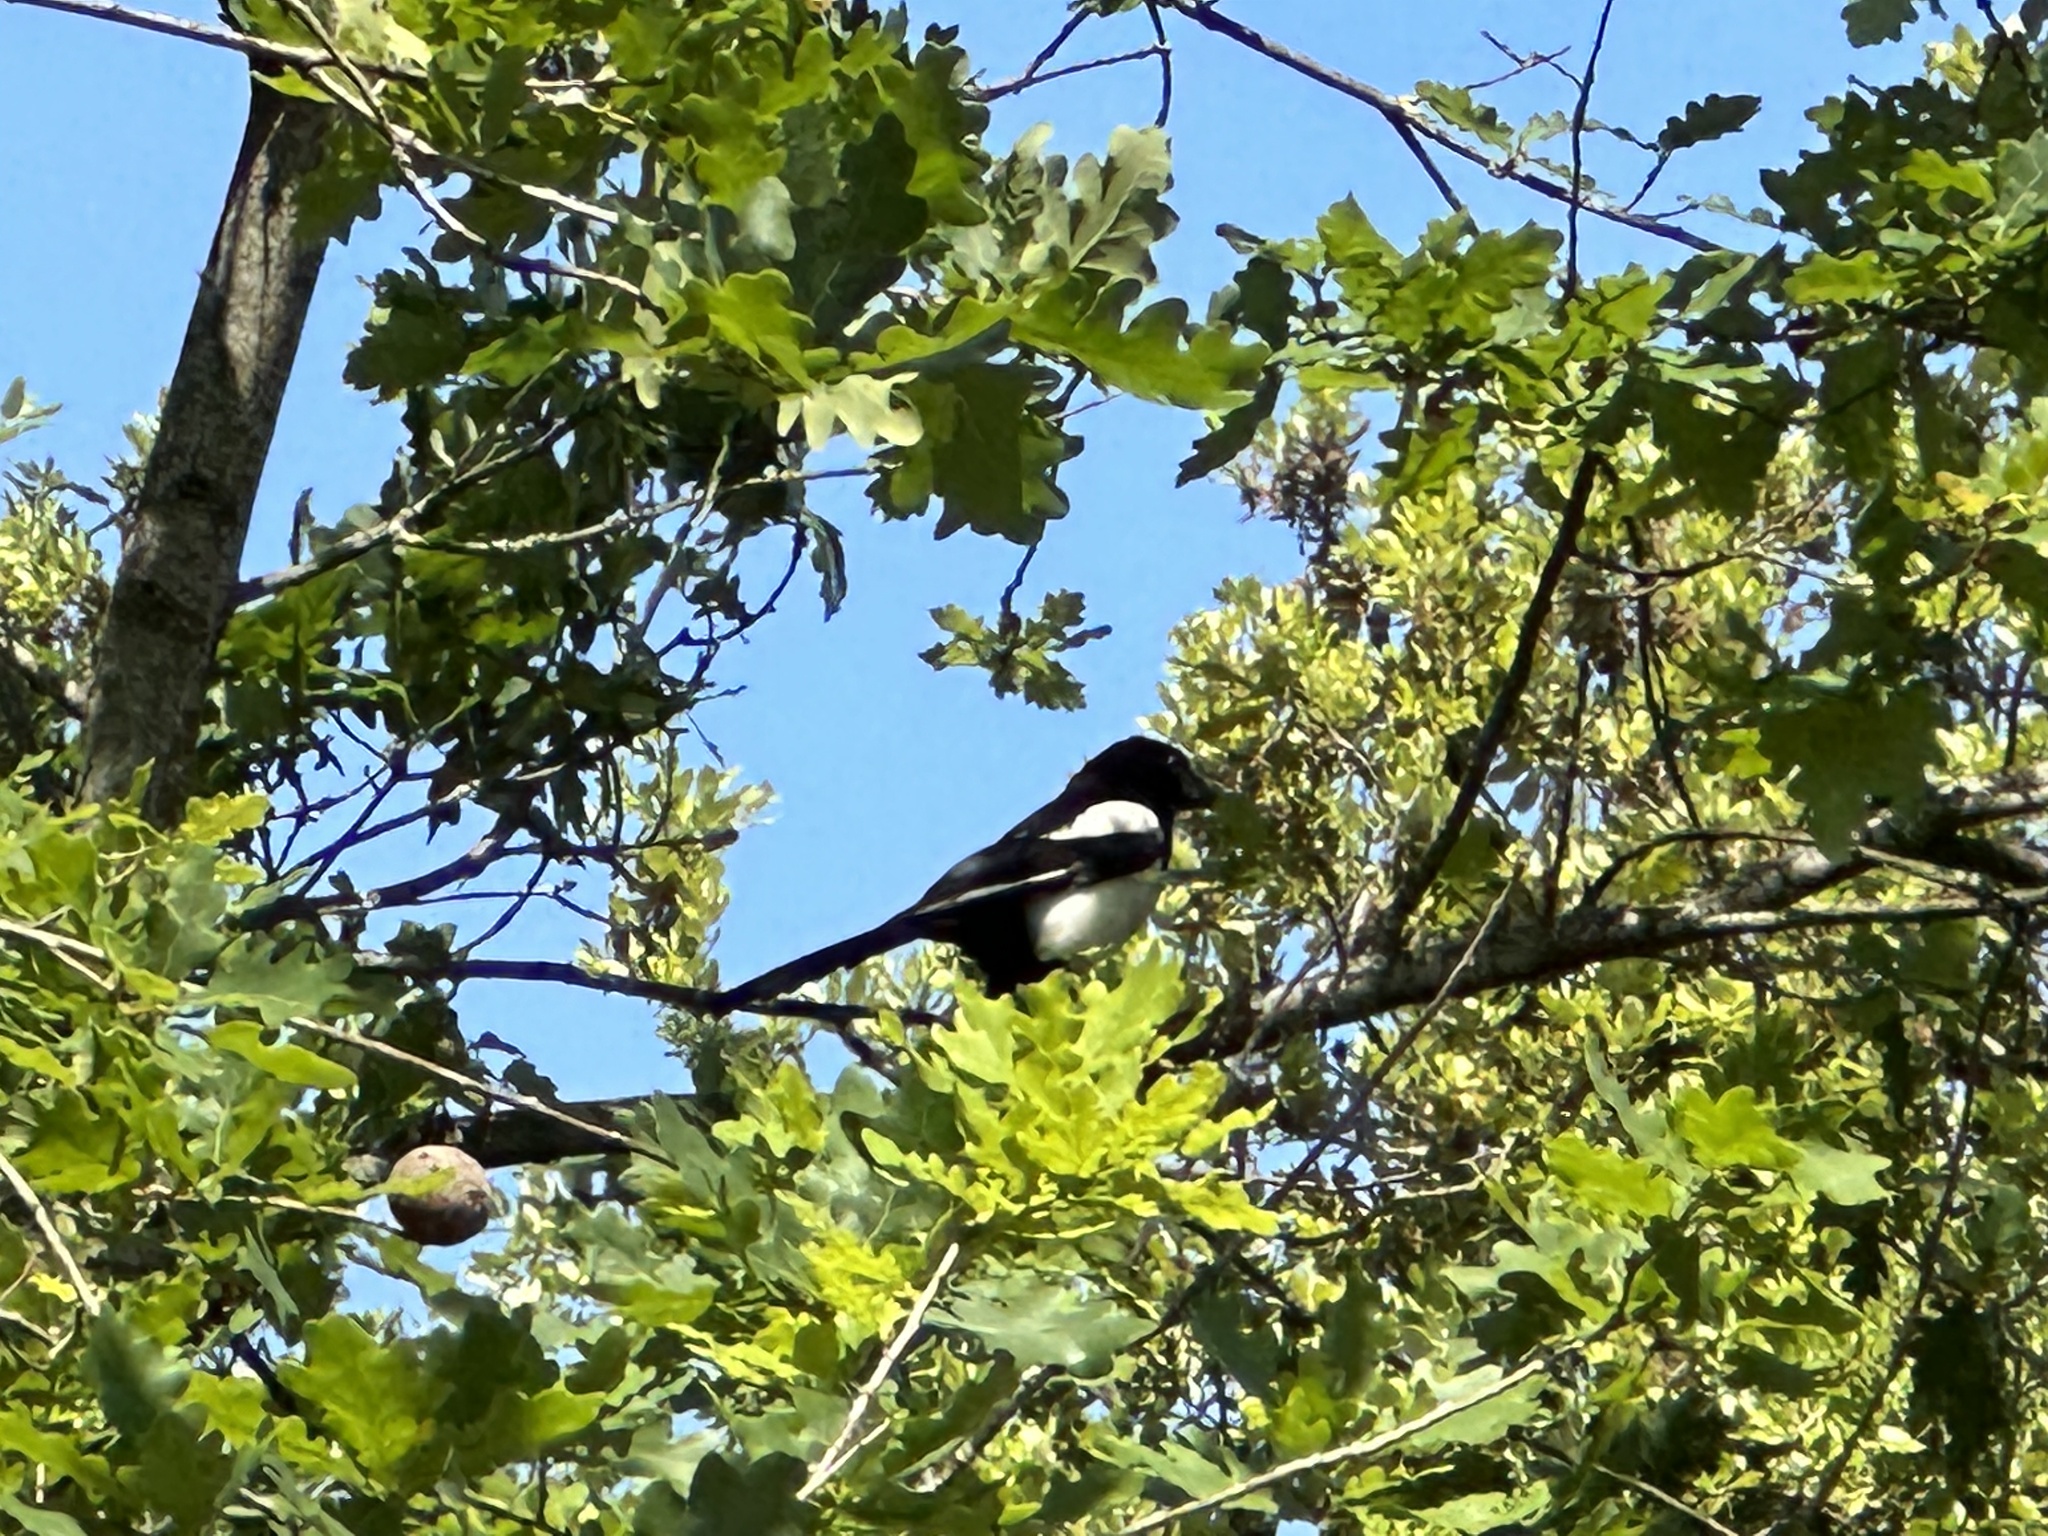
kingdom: Animalia
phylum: Chordata
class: Aves
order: Passeriformes
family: Corvidae
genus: Pica
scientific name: Pica pica
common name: Eurasian magpie
